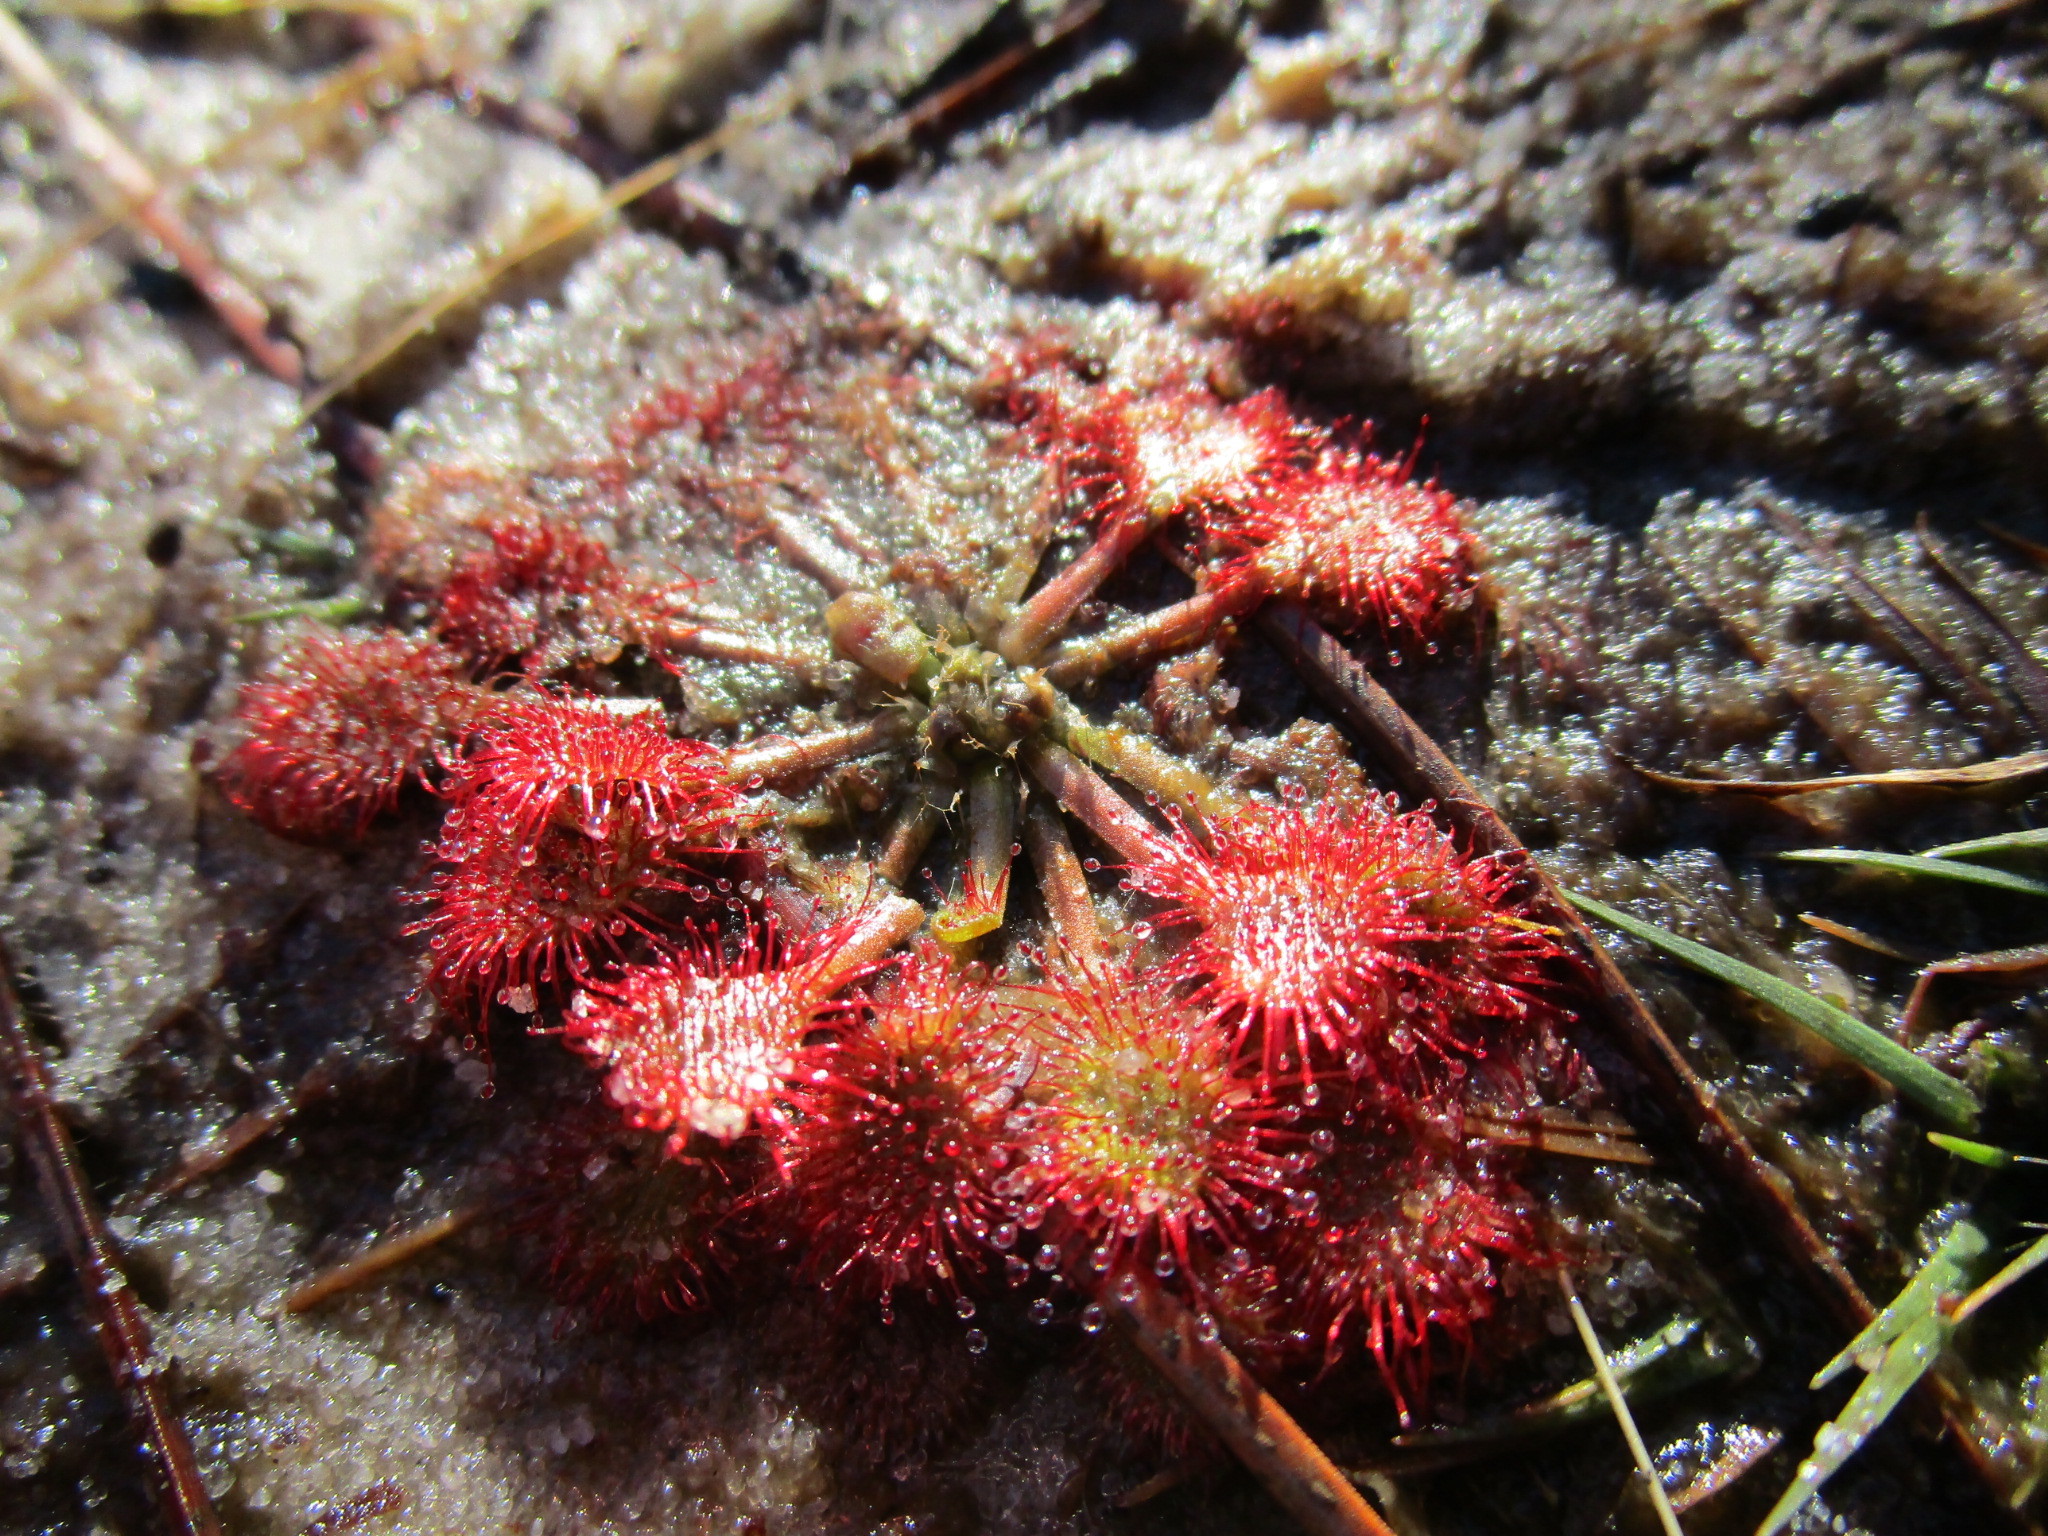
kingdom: Plantae
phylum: Tracheophyta
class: Magnoliopsida
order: Caryophyllales
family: Droseraceae
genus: Drosera
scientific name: Drosera capillaris
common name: Pink sundew
